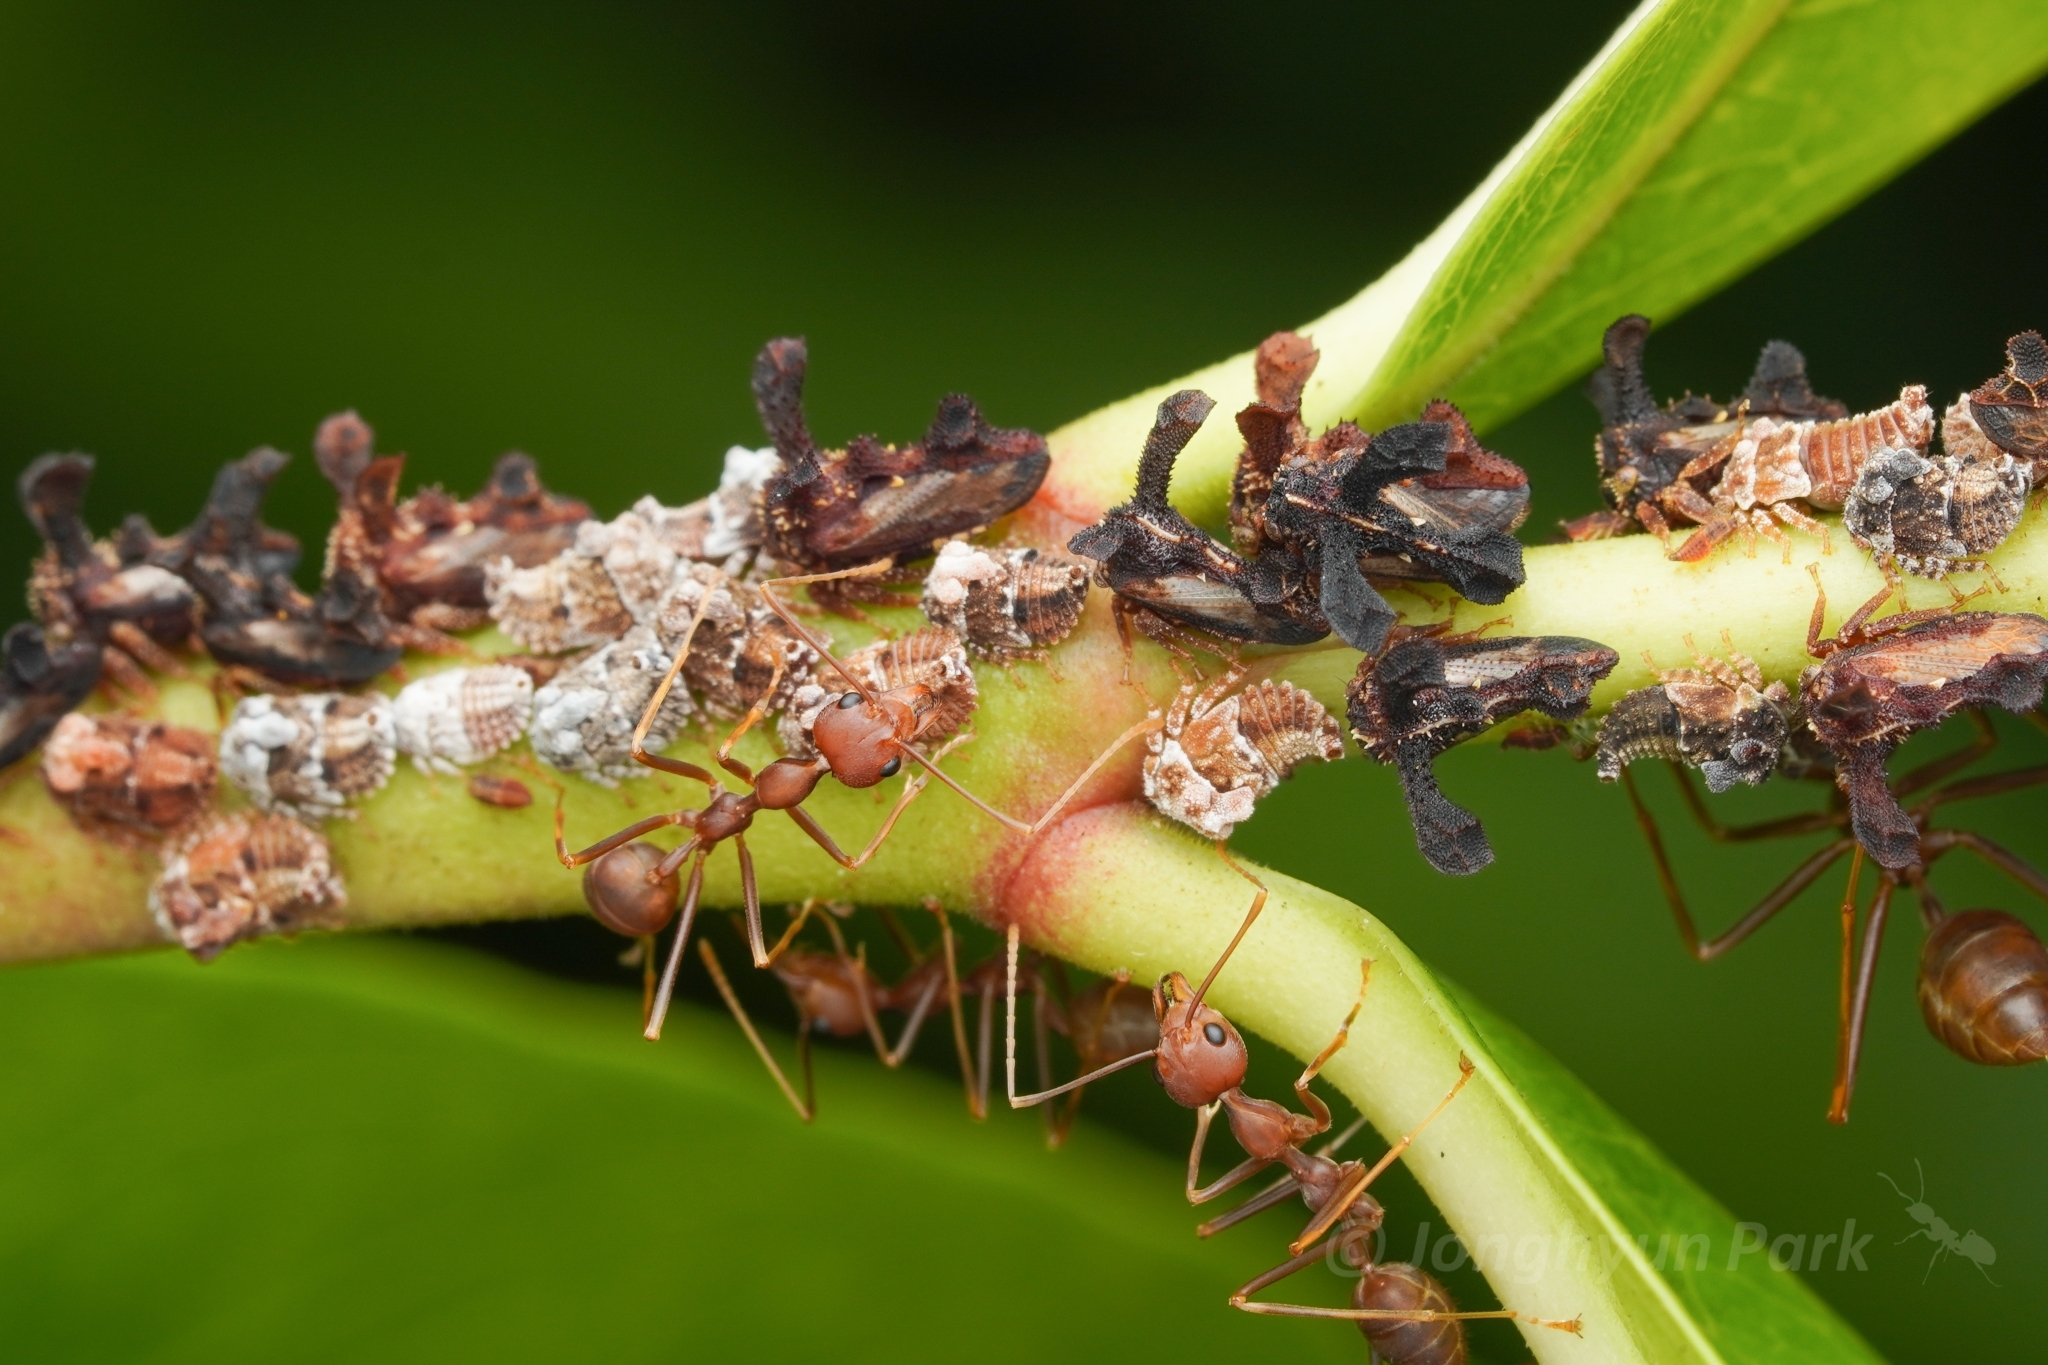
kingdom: Animalia
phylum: Arthropoda
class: Insecta
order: Hymenoptera
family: Formicidae
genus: Oecophylla
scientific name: Oecophylla smaragdina
